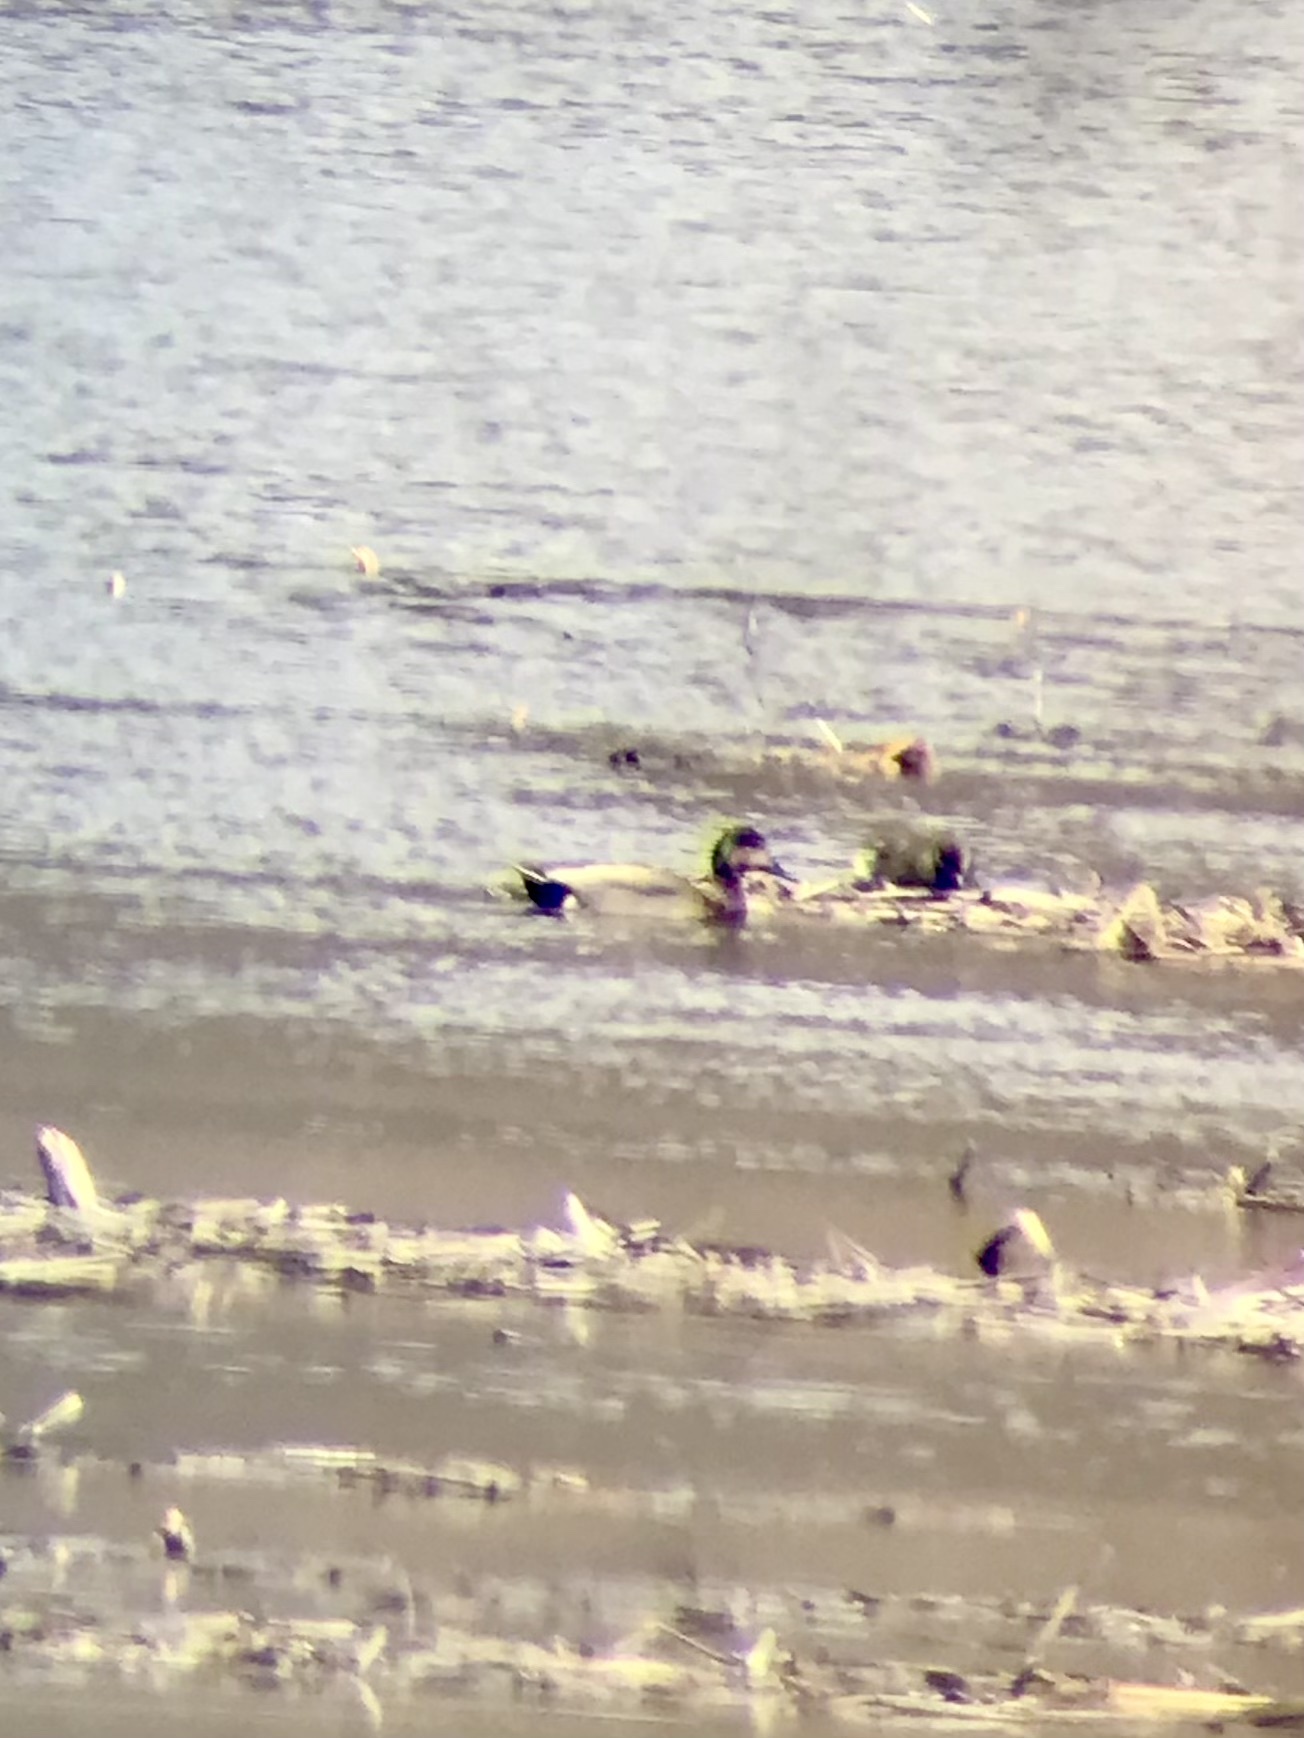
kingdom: Animalia
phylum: Chordata
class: Aves
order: Anseriformes
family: Anatidae
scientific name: Anatidae
